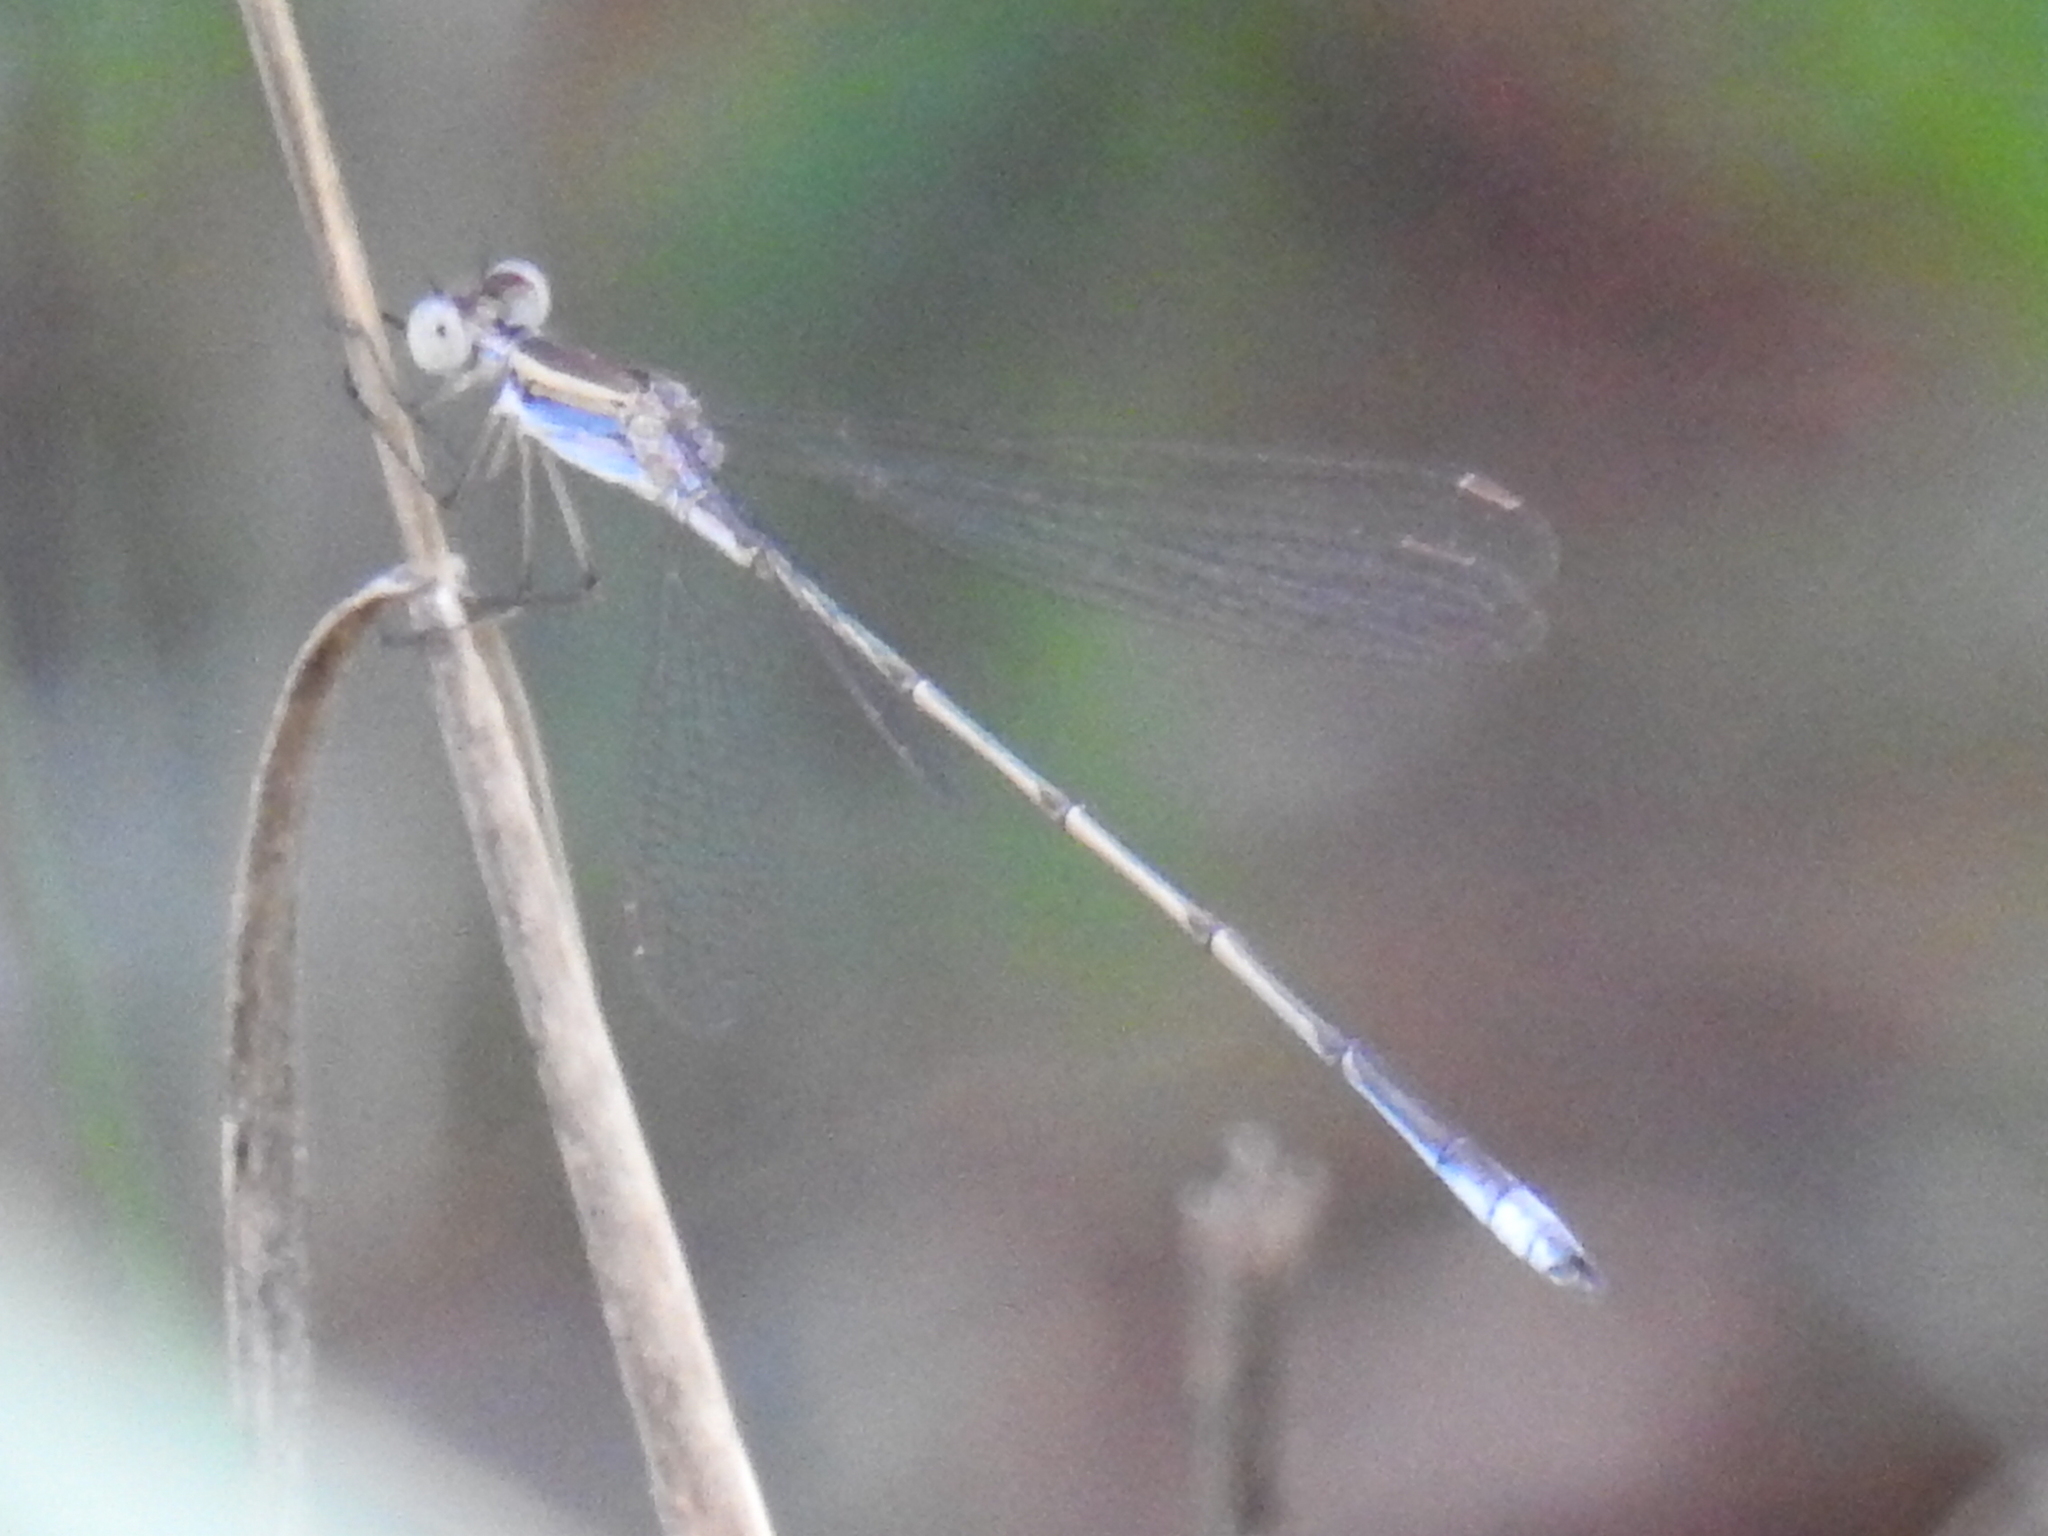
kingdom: Animalia
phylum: Arthropoda
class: Insecta
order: Odonata
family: Lestidae
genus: Lestes
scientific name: Lestes australis
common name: Southern spreadwing
